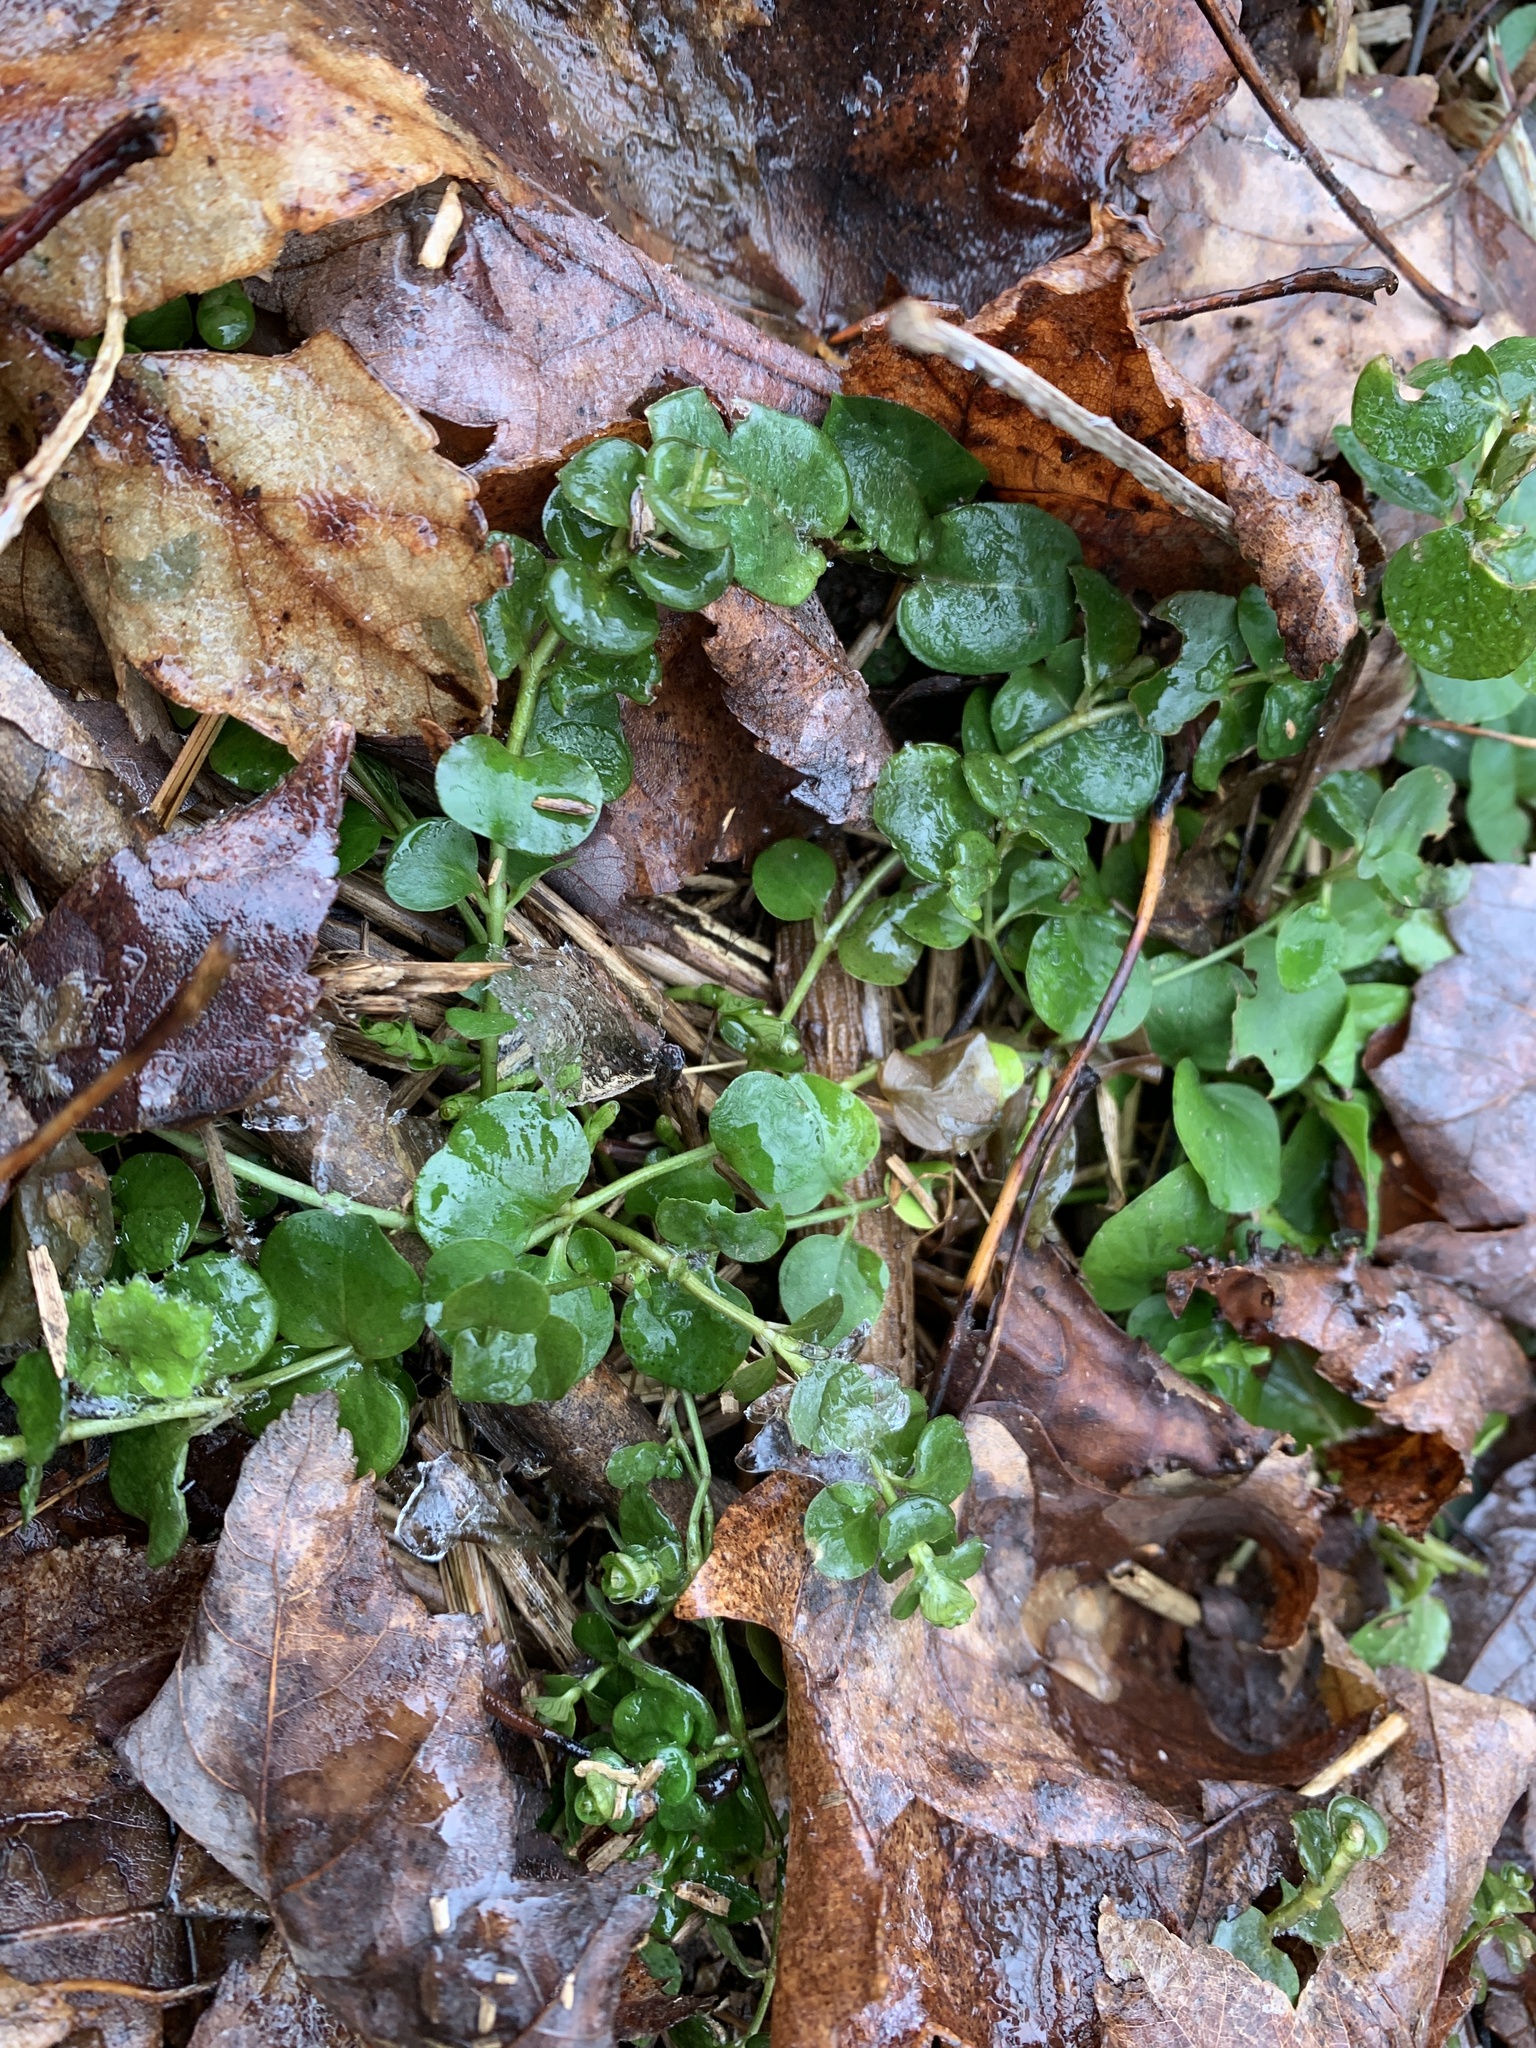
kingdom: Plantae
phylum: Tracheophyta
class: Magnoliopsida
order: Ericales
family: Primulaceae
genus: Lysimachia
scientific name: Lysimachia nummularia
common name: Moneywort
